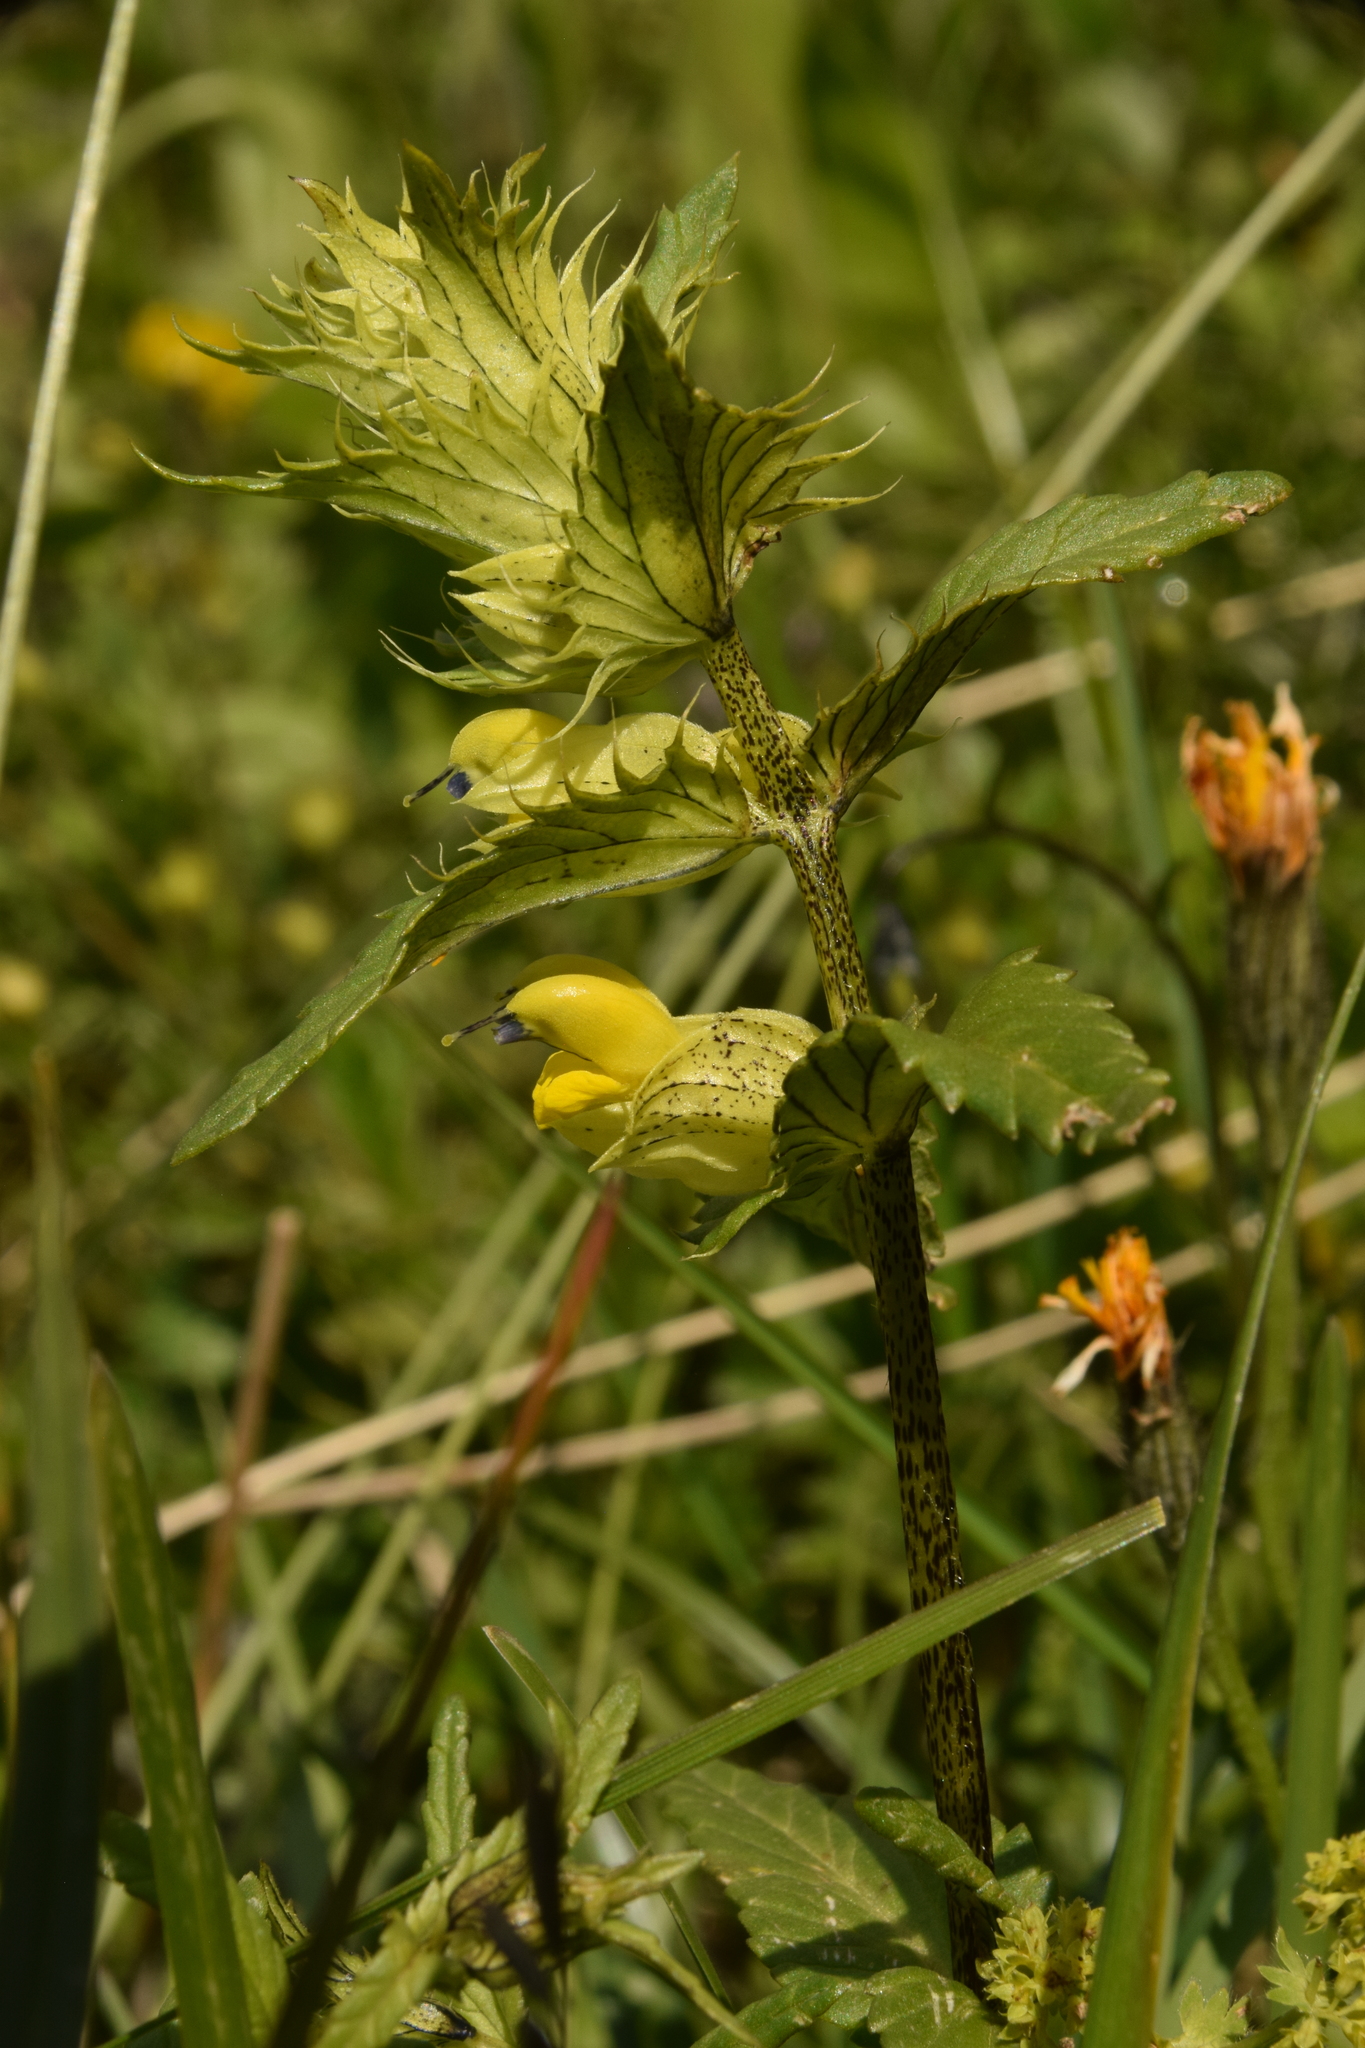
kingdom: Plantae
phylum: Tracheophyta
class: Magnoliopsida
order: Lamiales
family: Orobanchaceae
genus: Rhinanthus
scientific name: Rhinanthus glacialis
